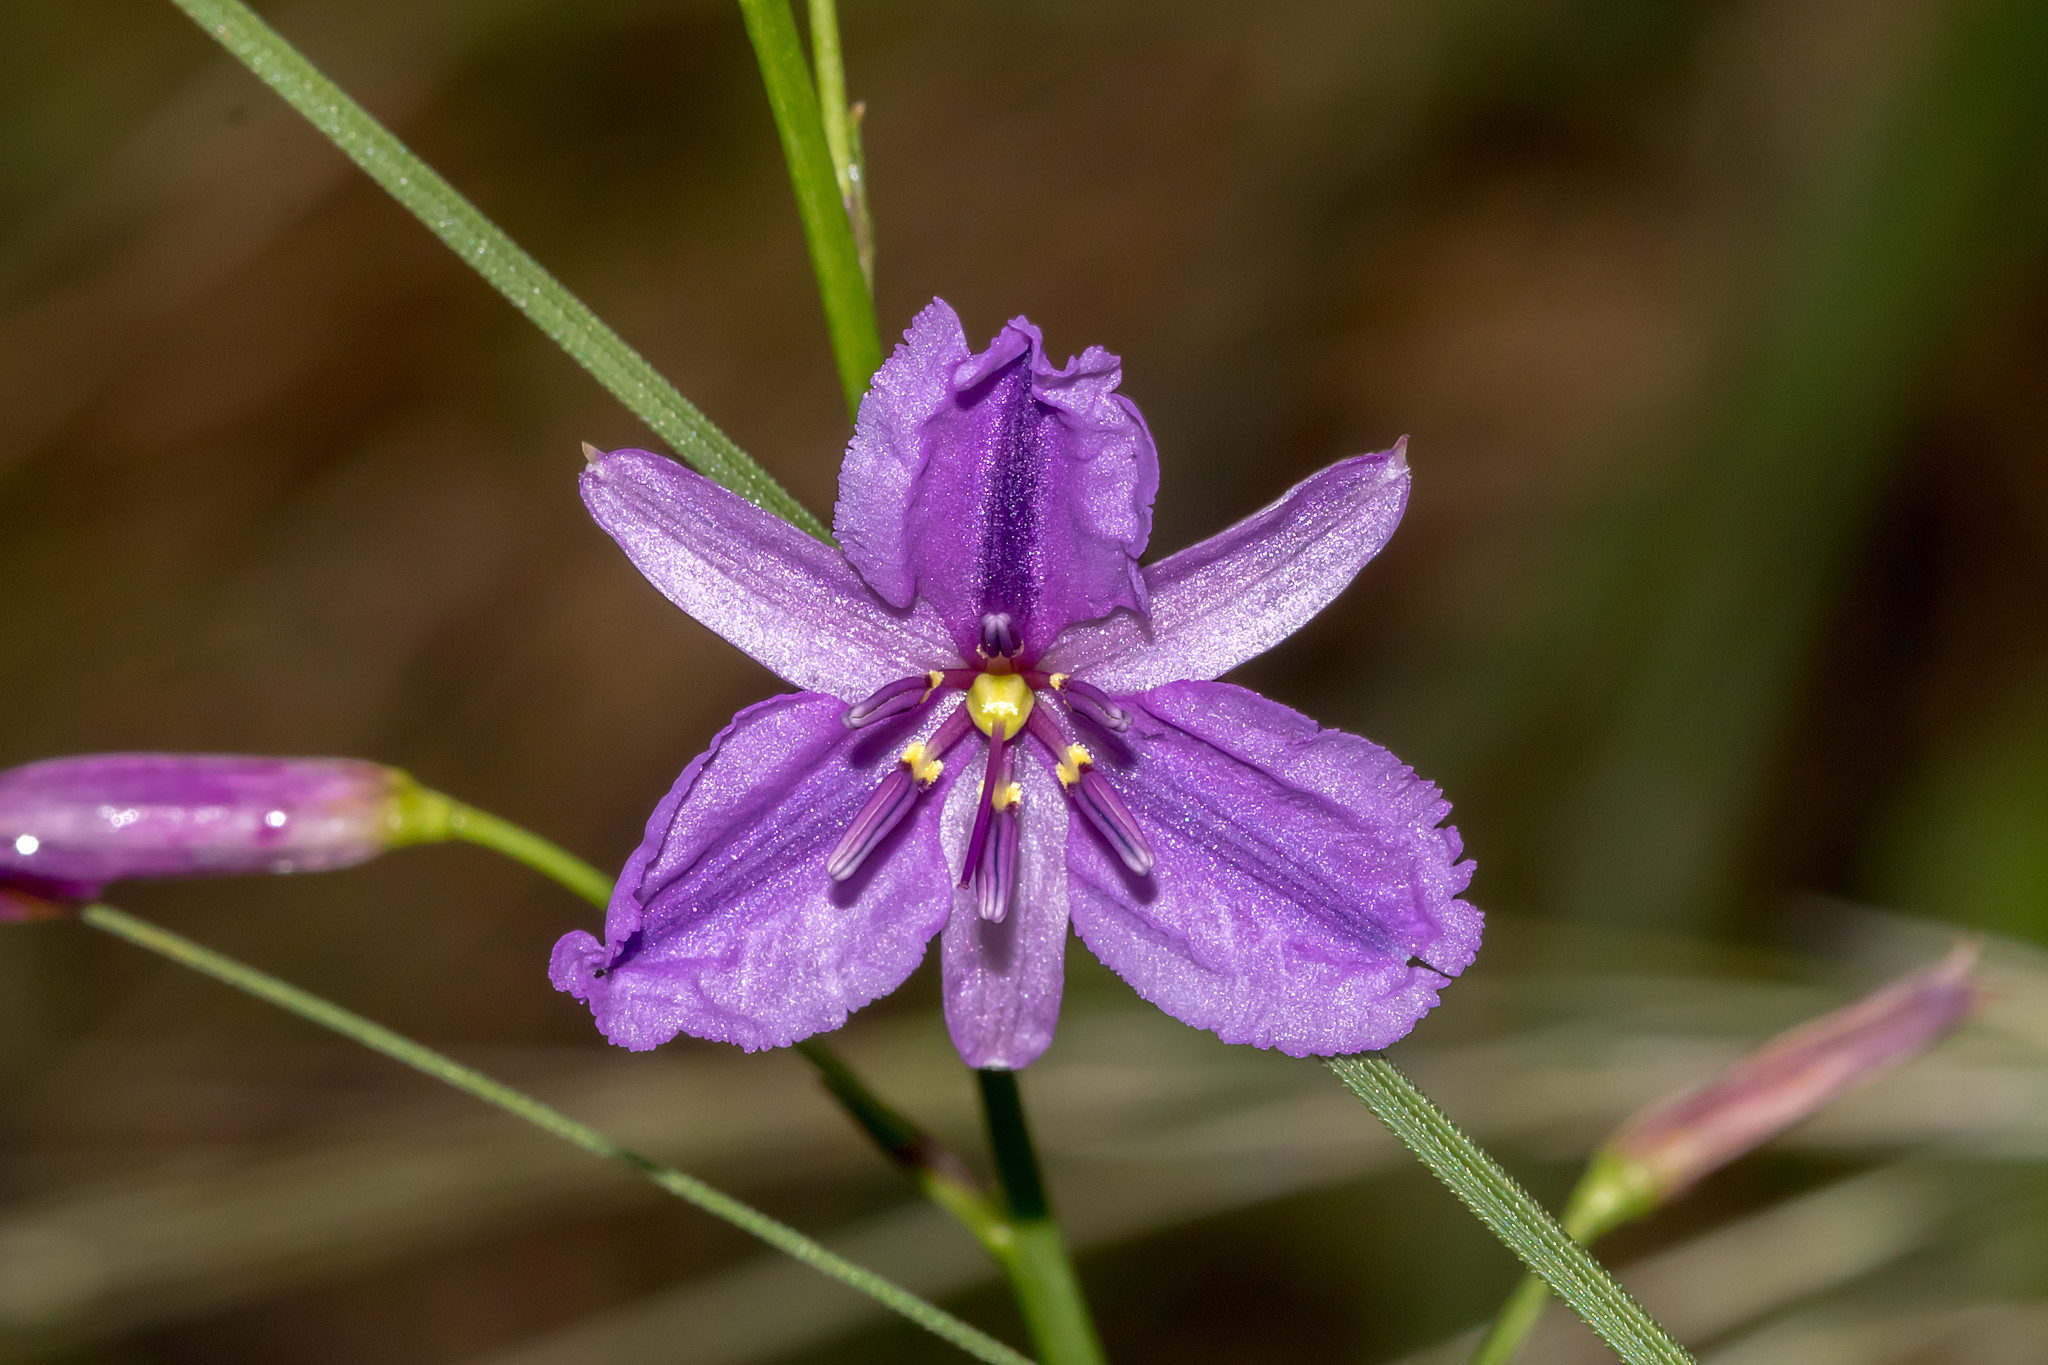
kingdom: Plantae
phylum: Tracheophyta
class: Liliopsida
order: Asparagales
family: Asparagaceae
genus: Arthropodium
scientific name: Arthropodium strictum
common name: Chocolate-lily
